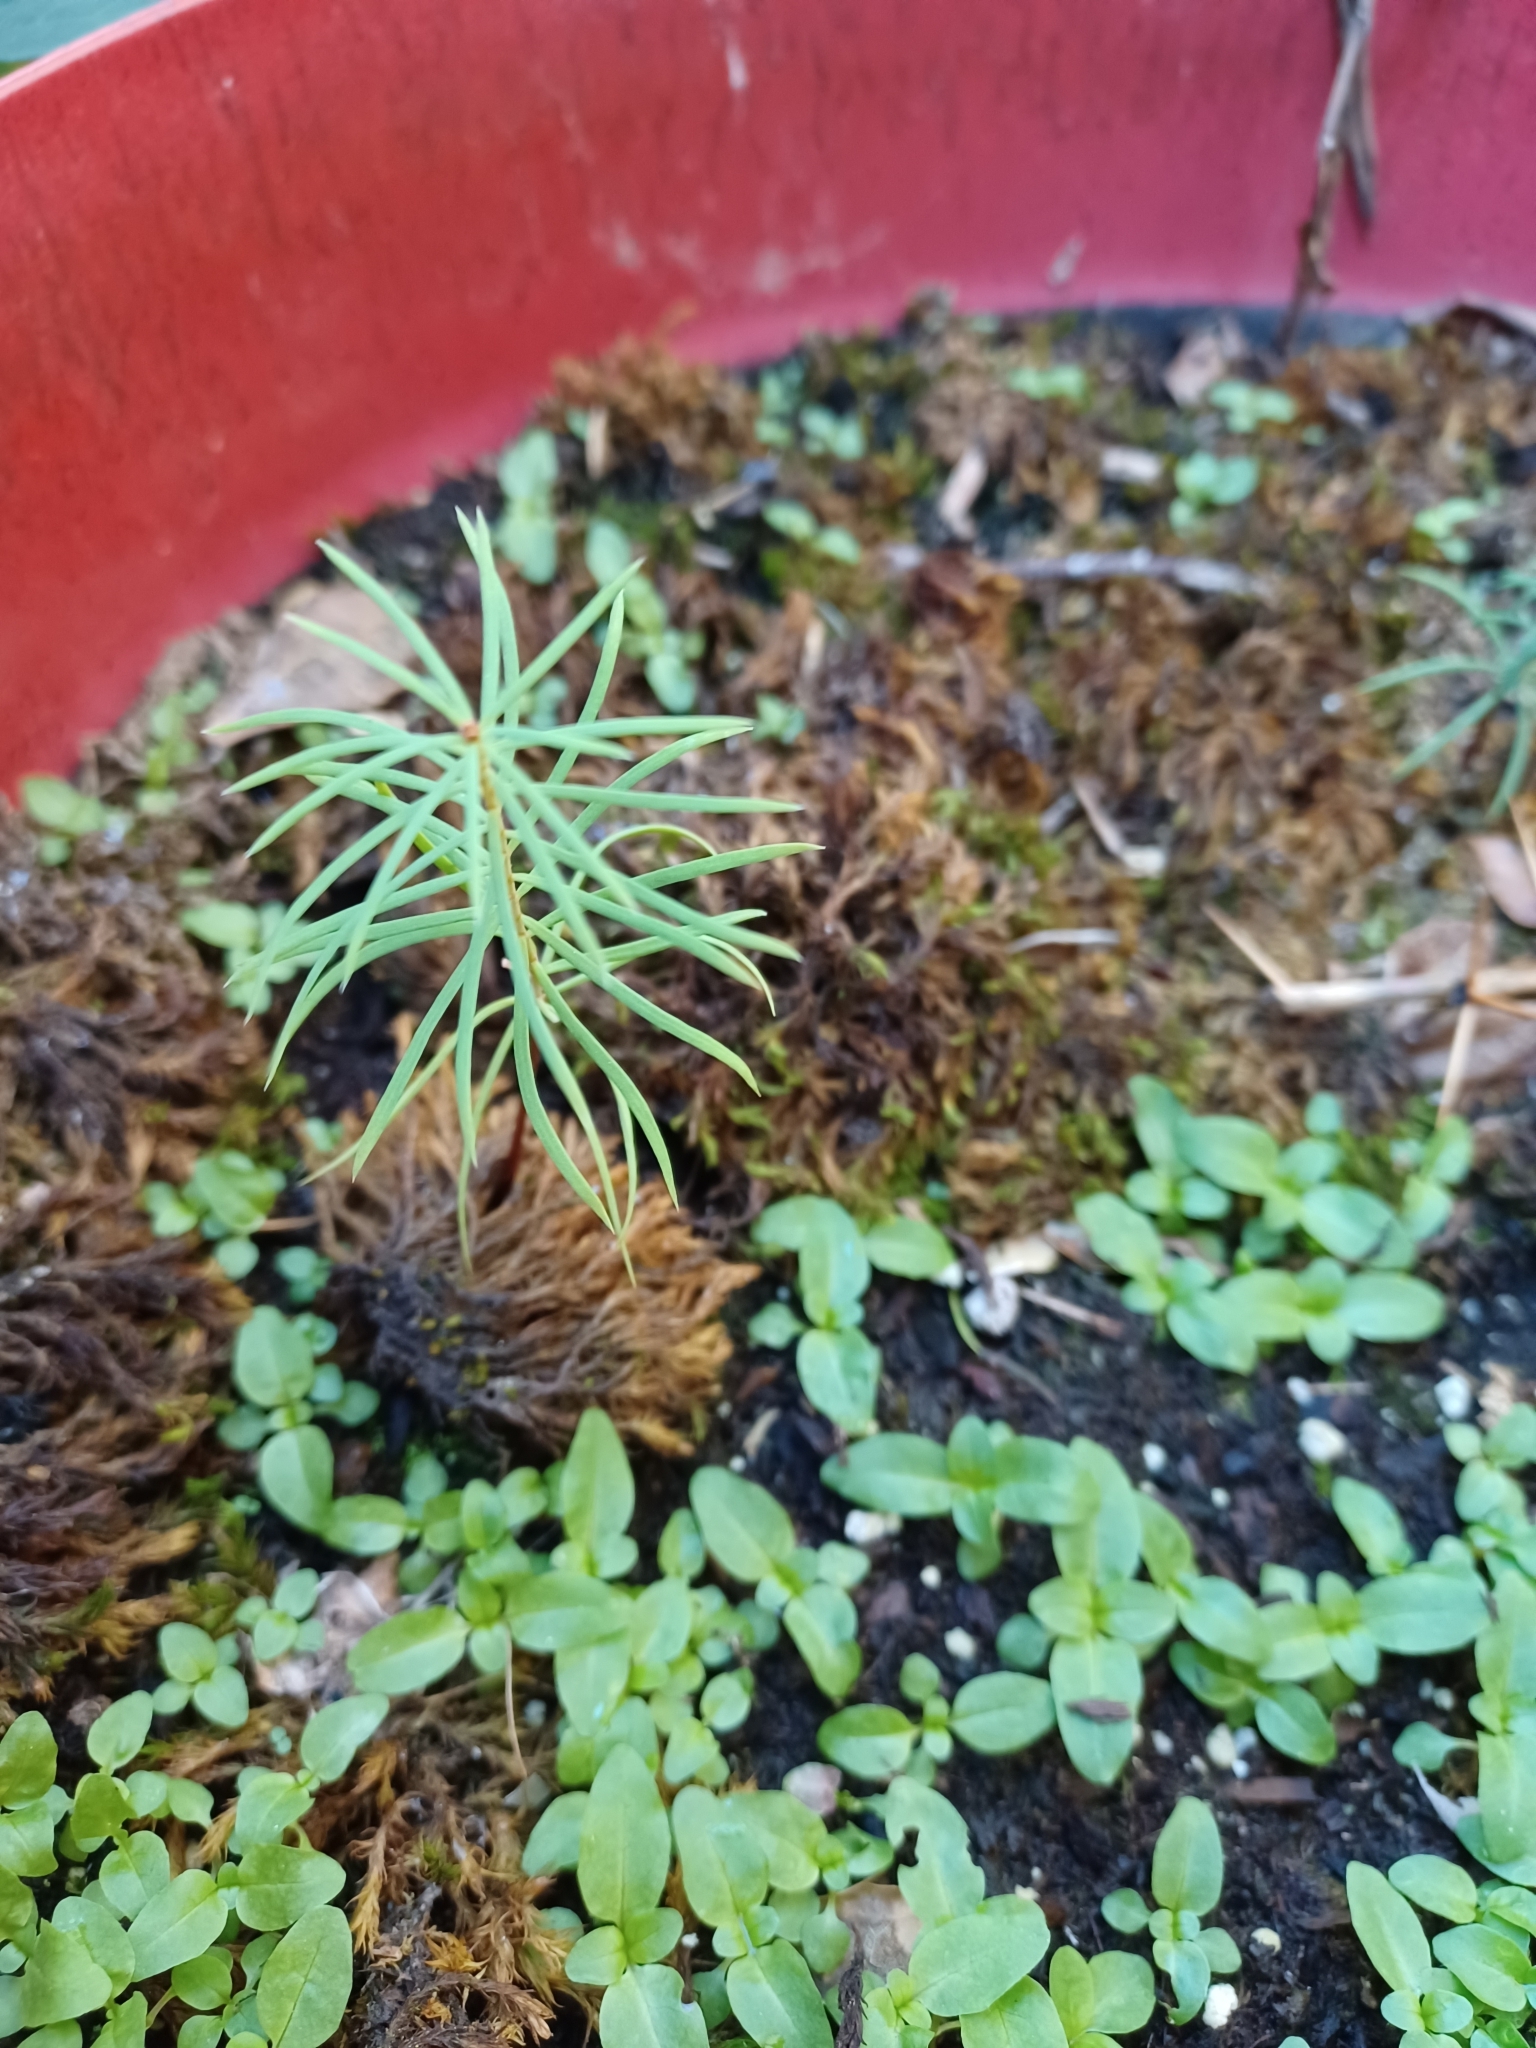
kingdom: Plantae
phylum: Tracheophyta
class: Pinopsida
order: Pinales
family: Pinaceae
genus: Pseudotsuga
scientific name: Pseudotsuga menziesii
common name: Douglas fir
